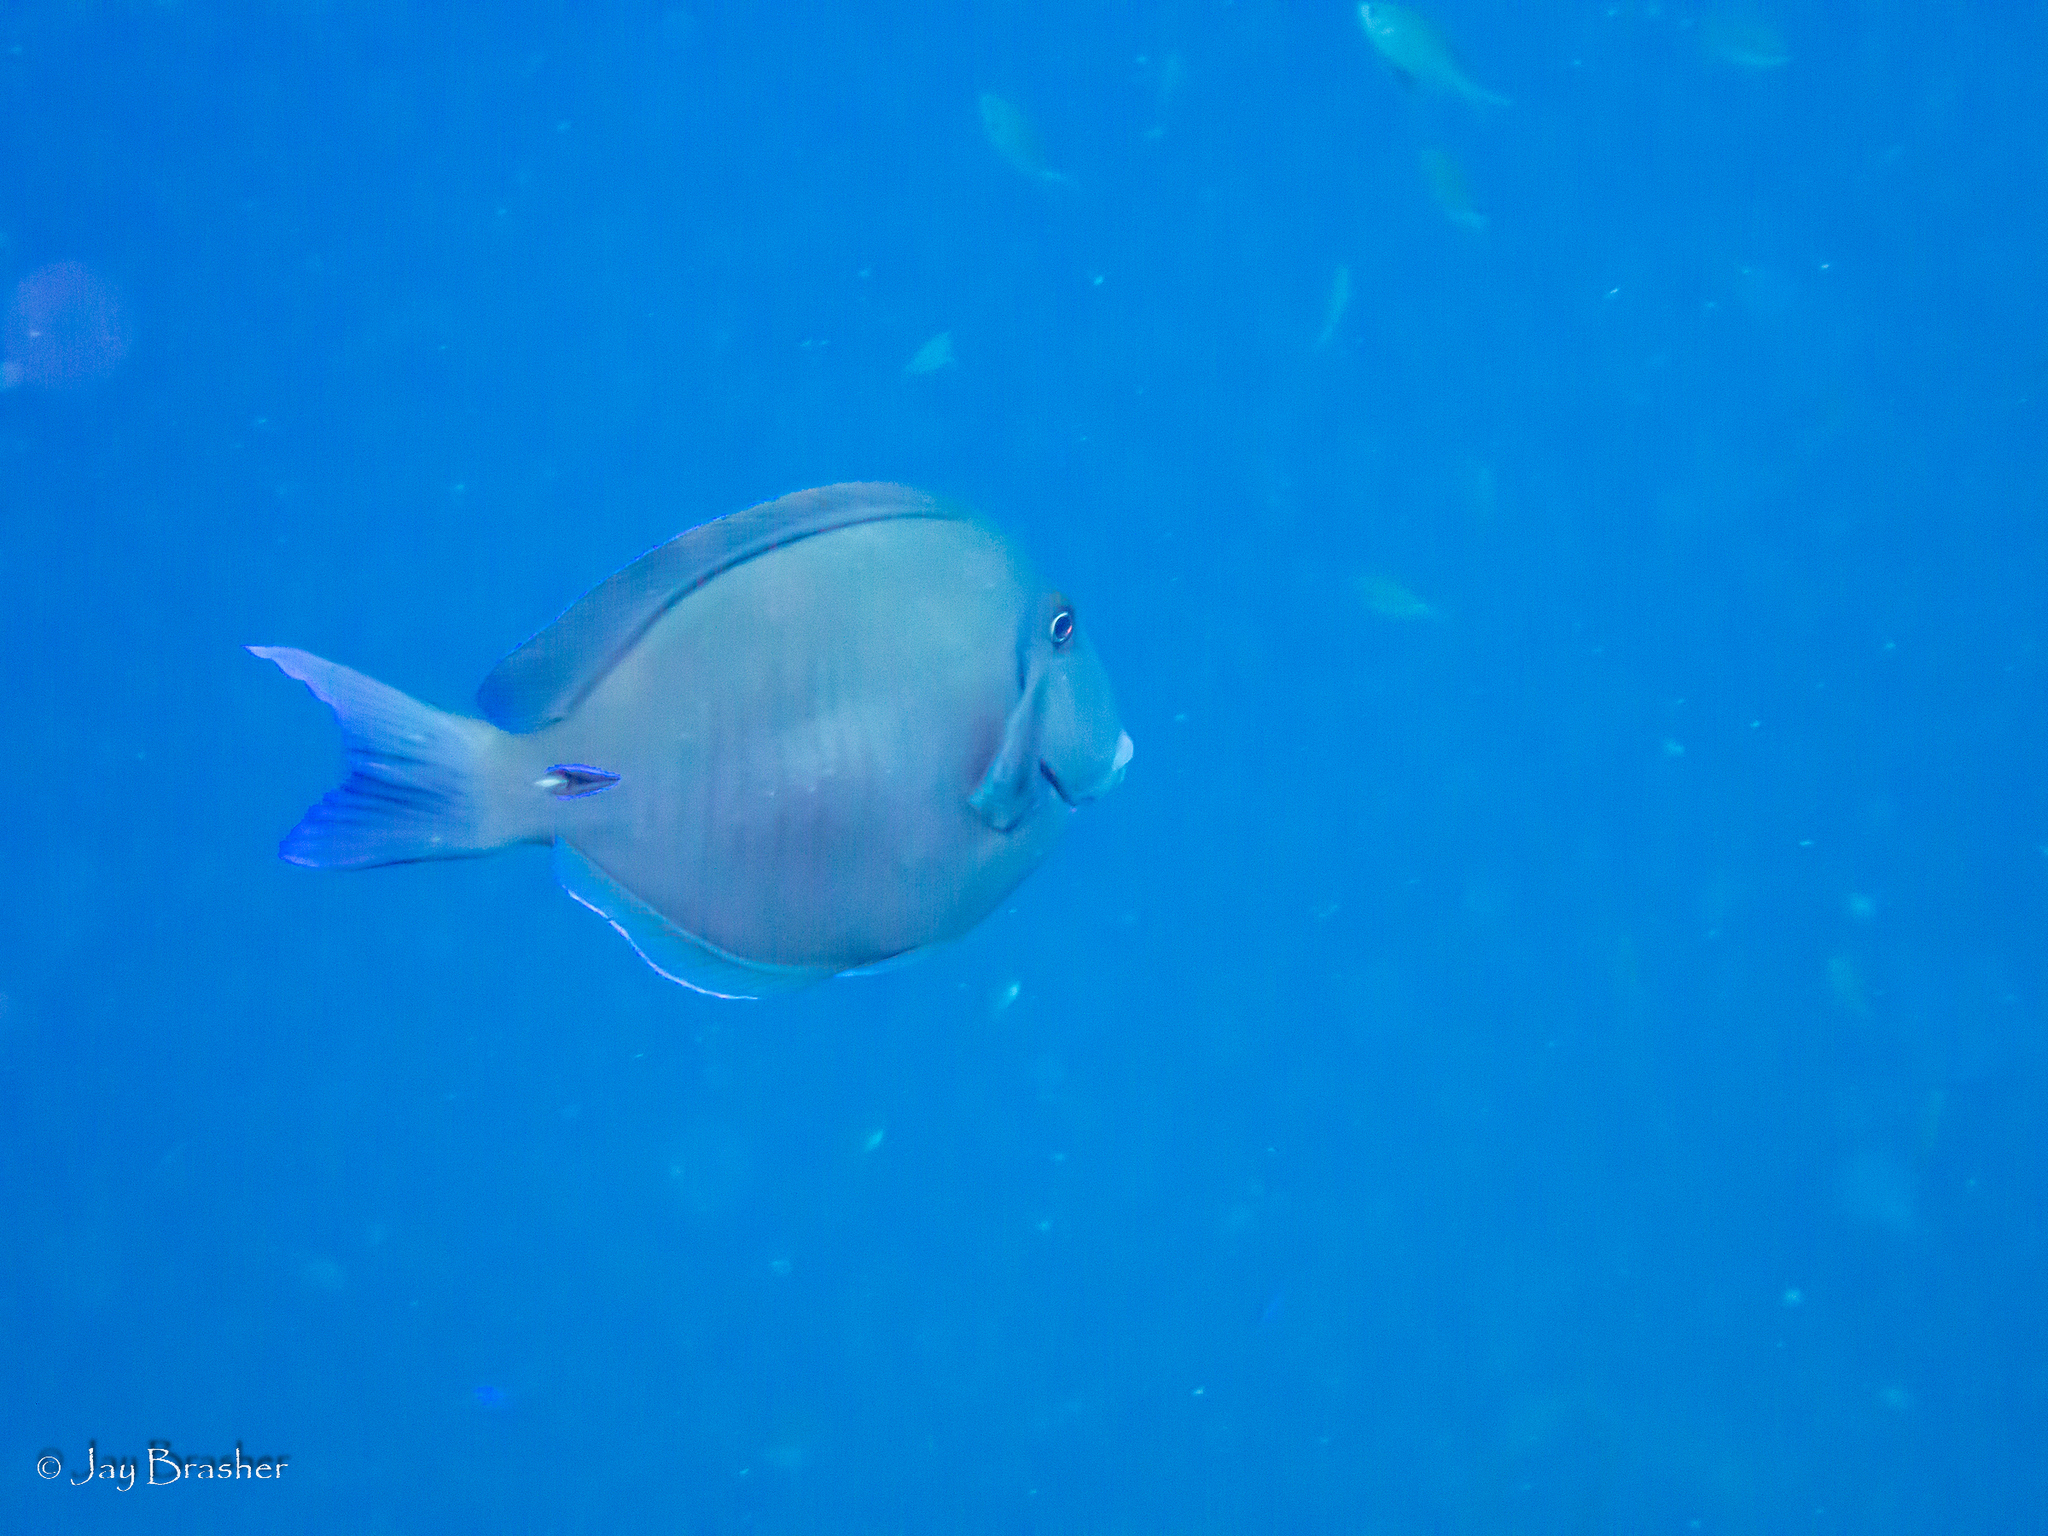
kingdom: Animalia
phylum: Chordata
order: Perciformes
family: Acanthuridae
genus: Acanthurus
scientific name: Acanthurus chirurgus
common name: Doctorfish
